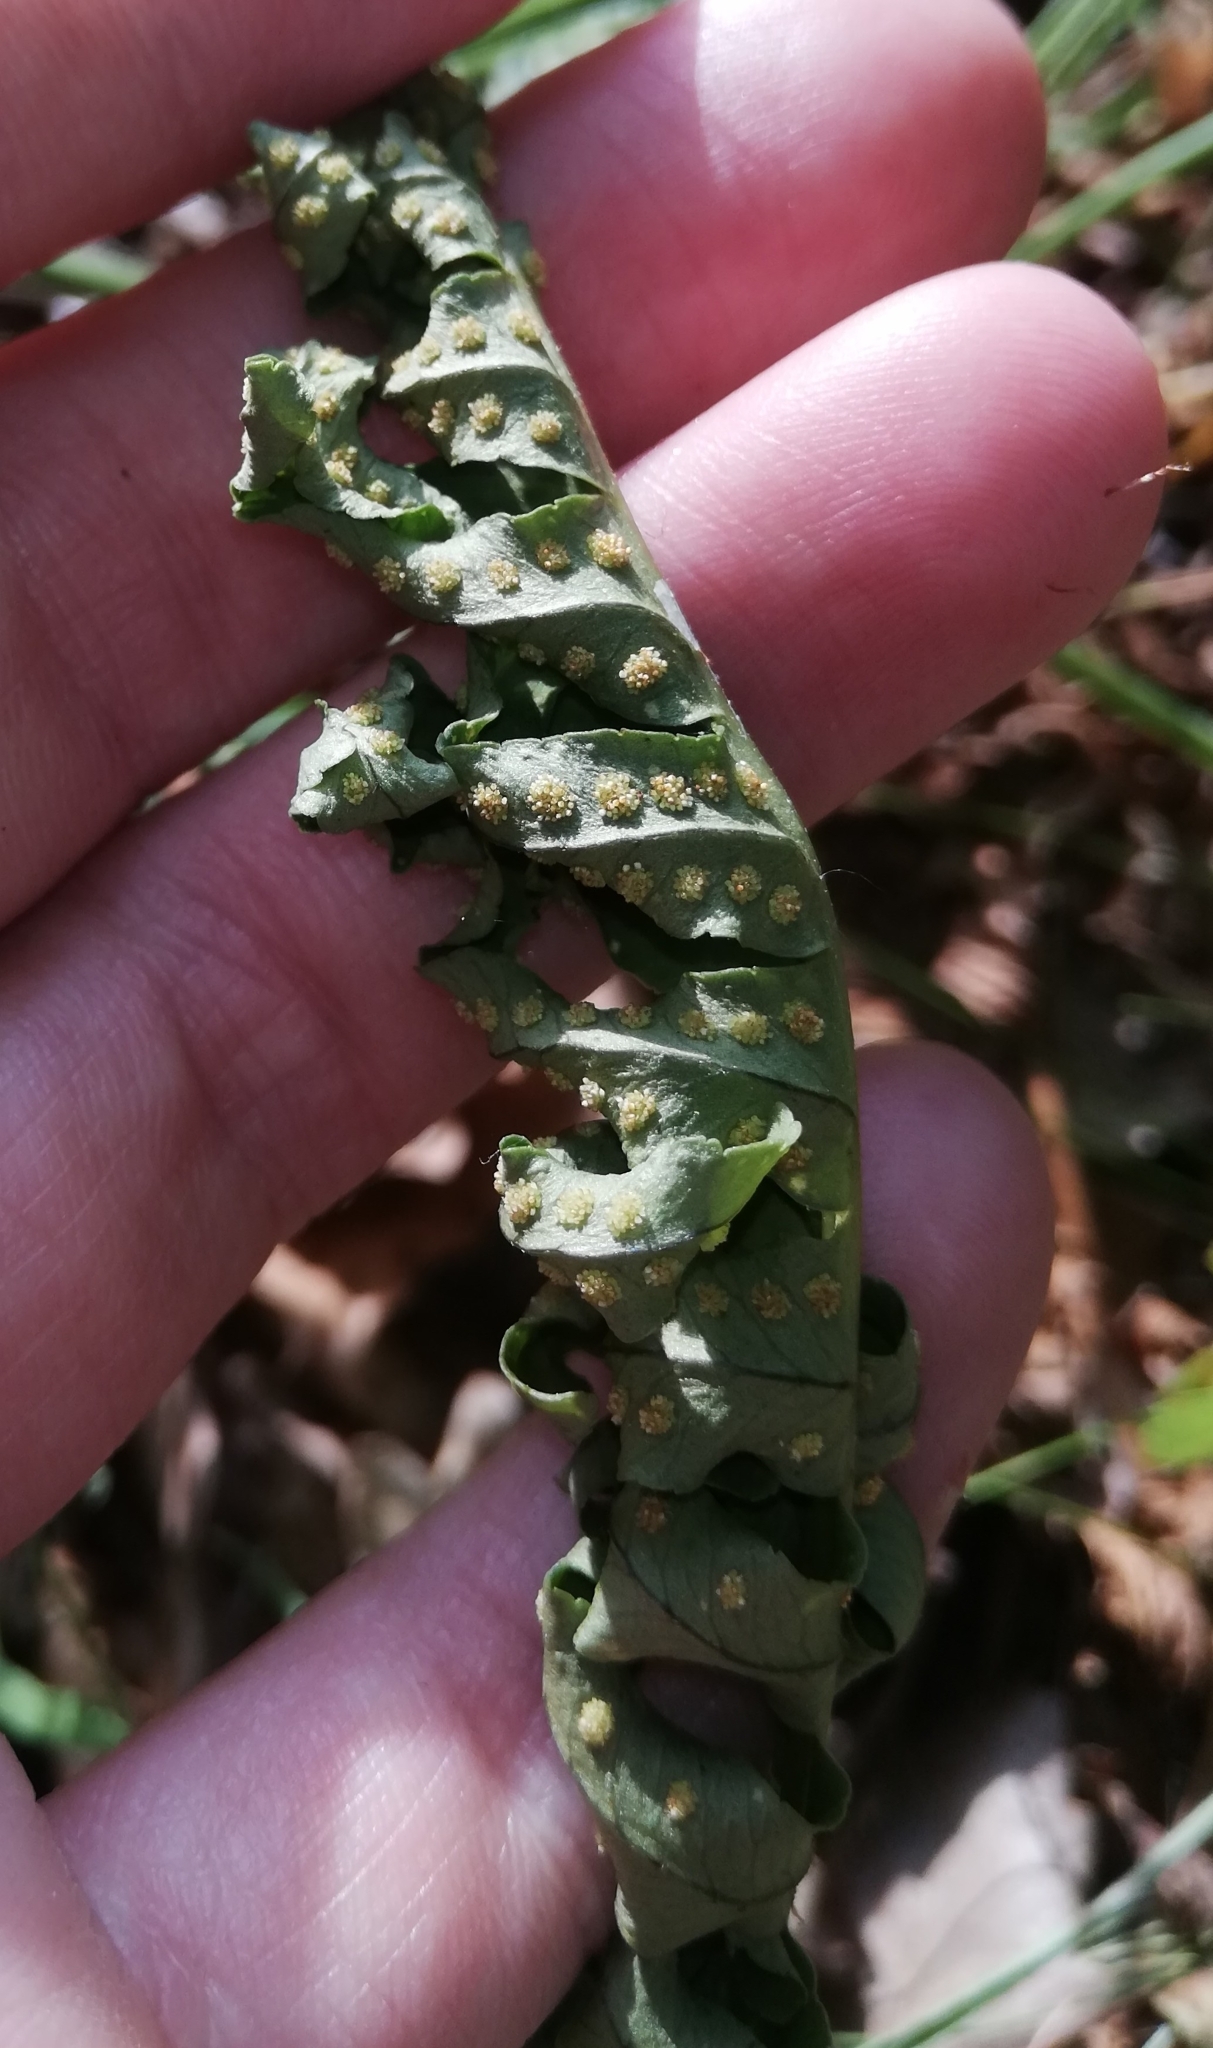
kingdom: Plantae
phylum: Tracheophyta
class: Polypodiopsida
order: Polypodiales
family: Polypodiaceae
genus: Polypodium
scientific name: Polypodium vulgare
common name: Common polypody
